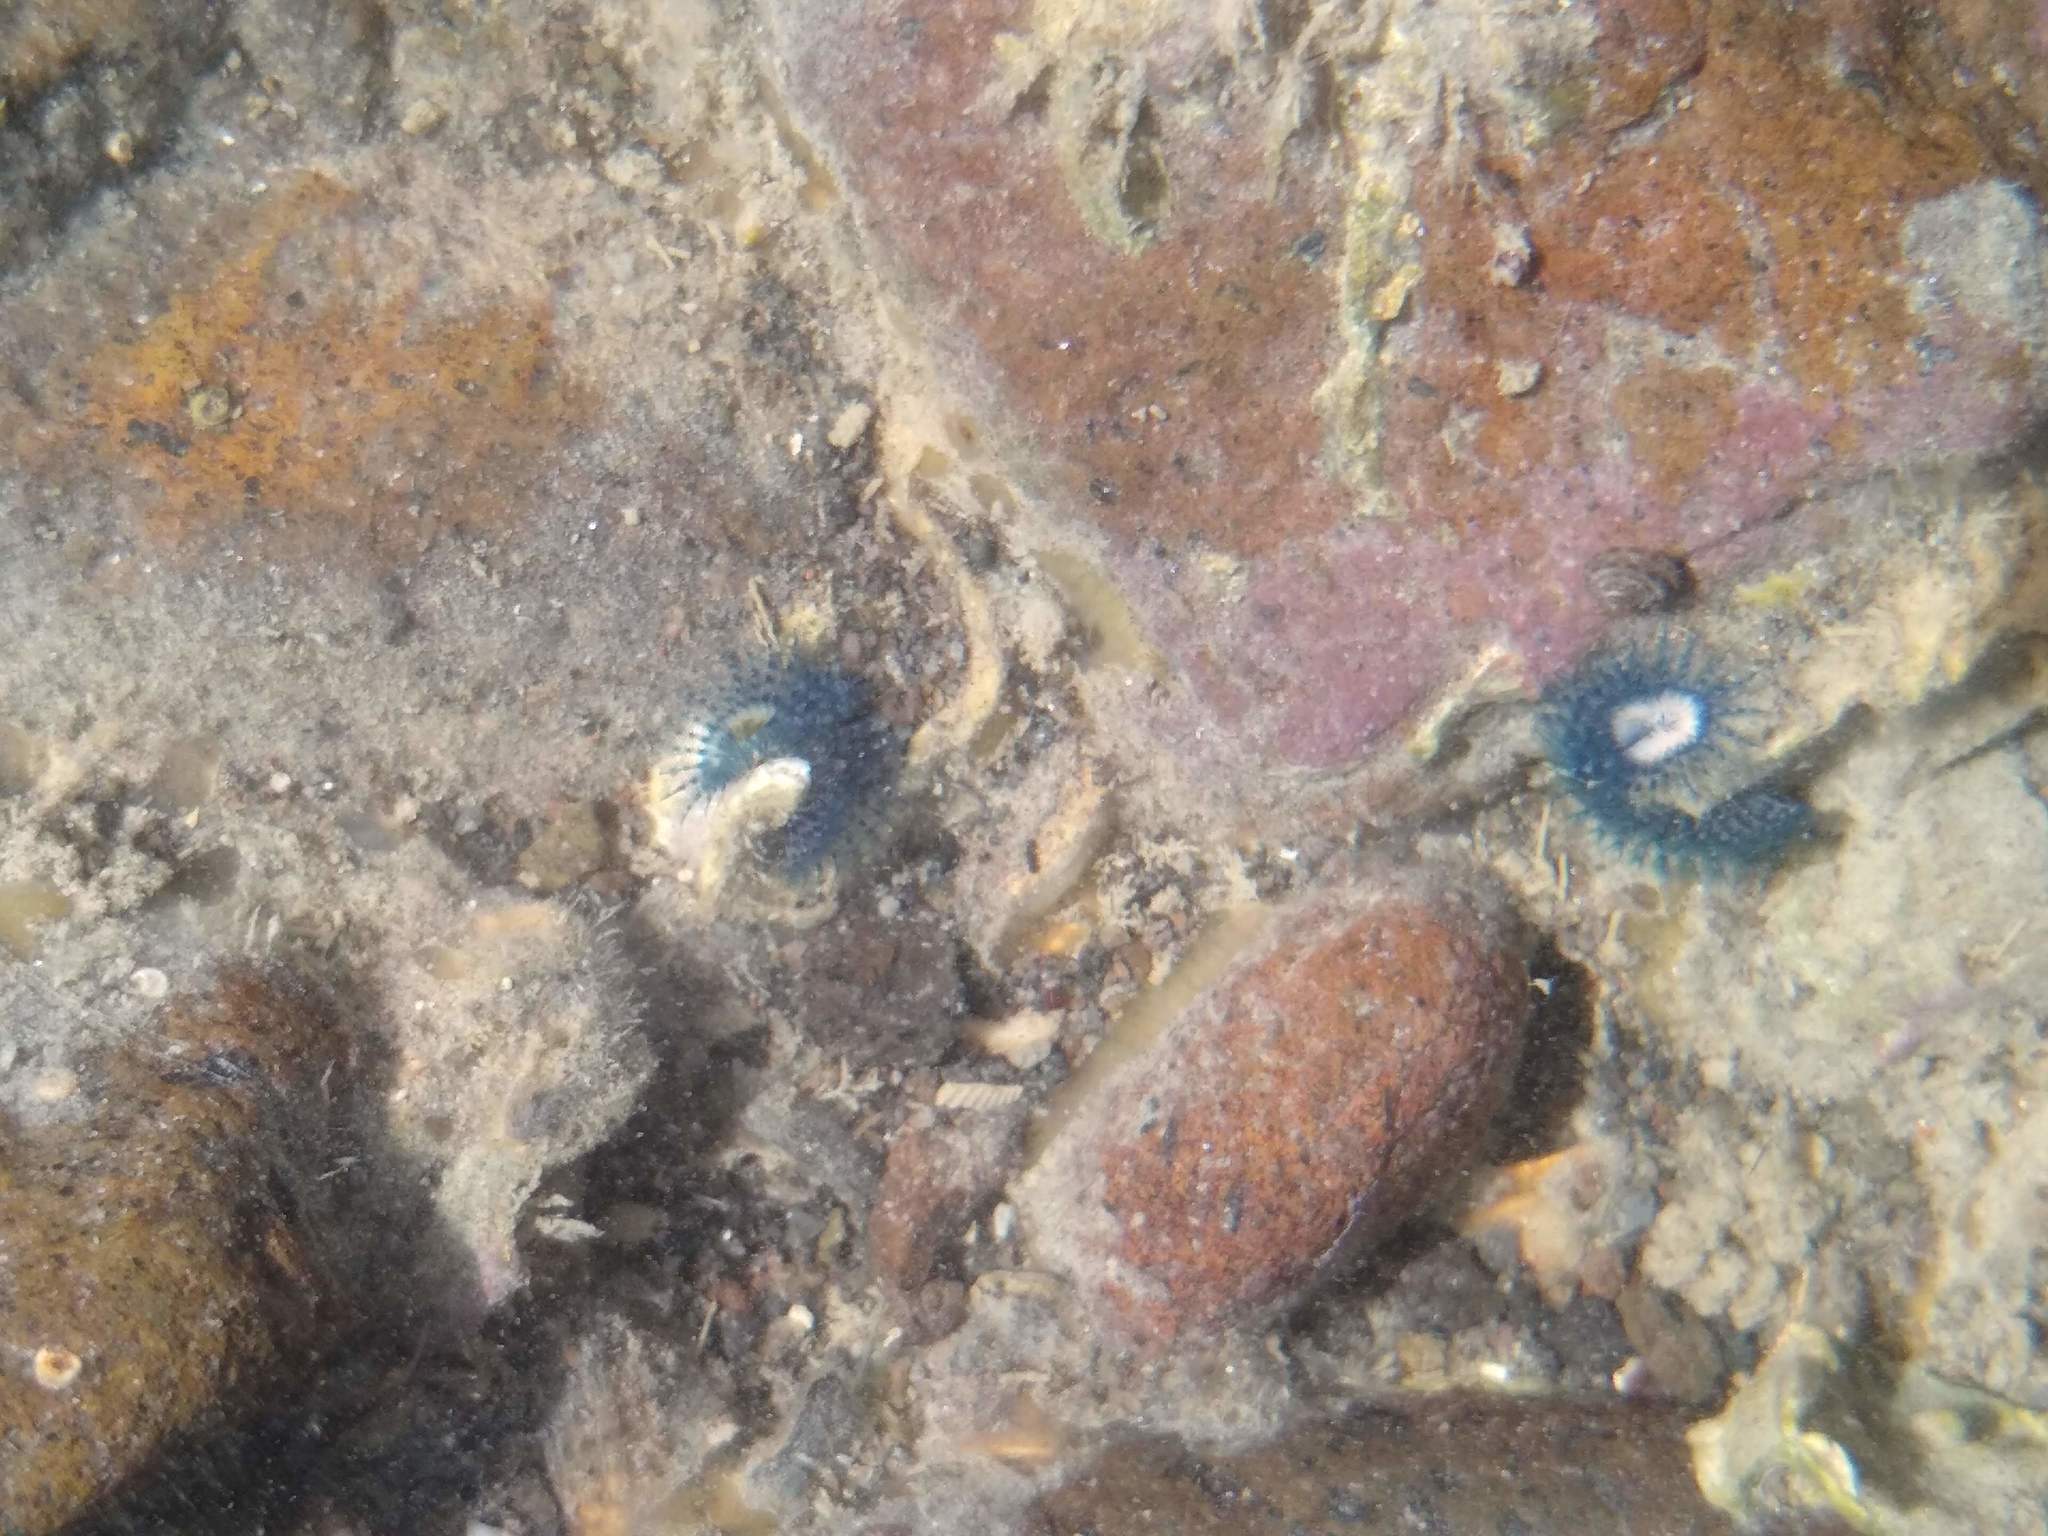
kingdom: Animalia
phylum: Annelida
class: Polychaeta
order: Sabellida
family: Serpulidae
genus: Spirobranchus
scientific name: Spirobranchus cariniferus
